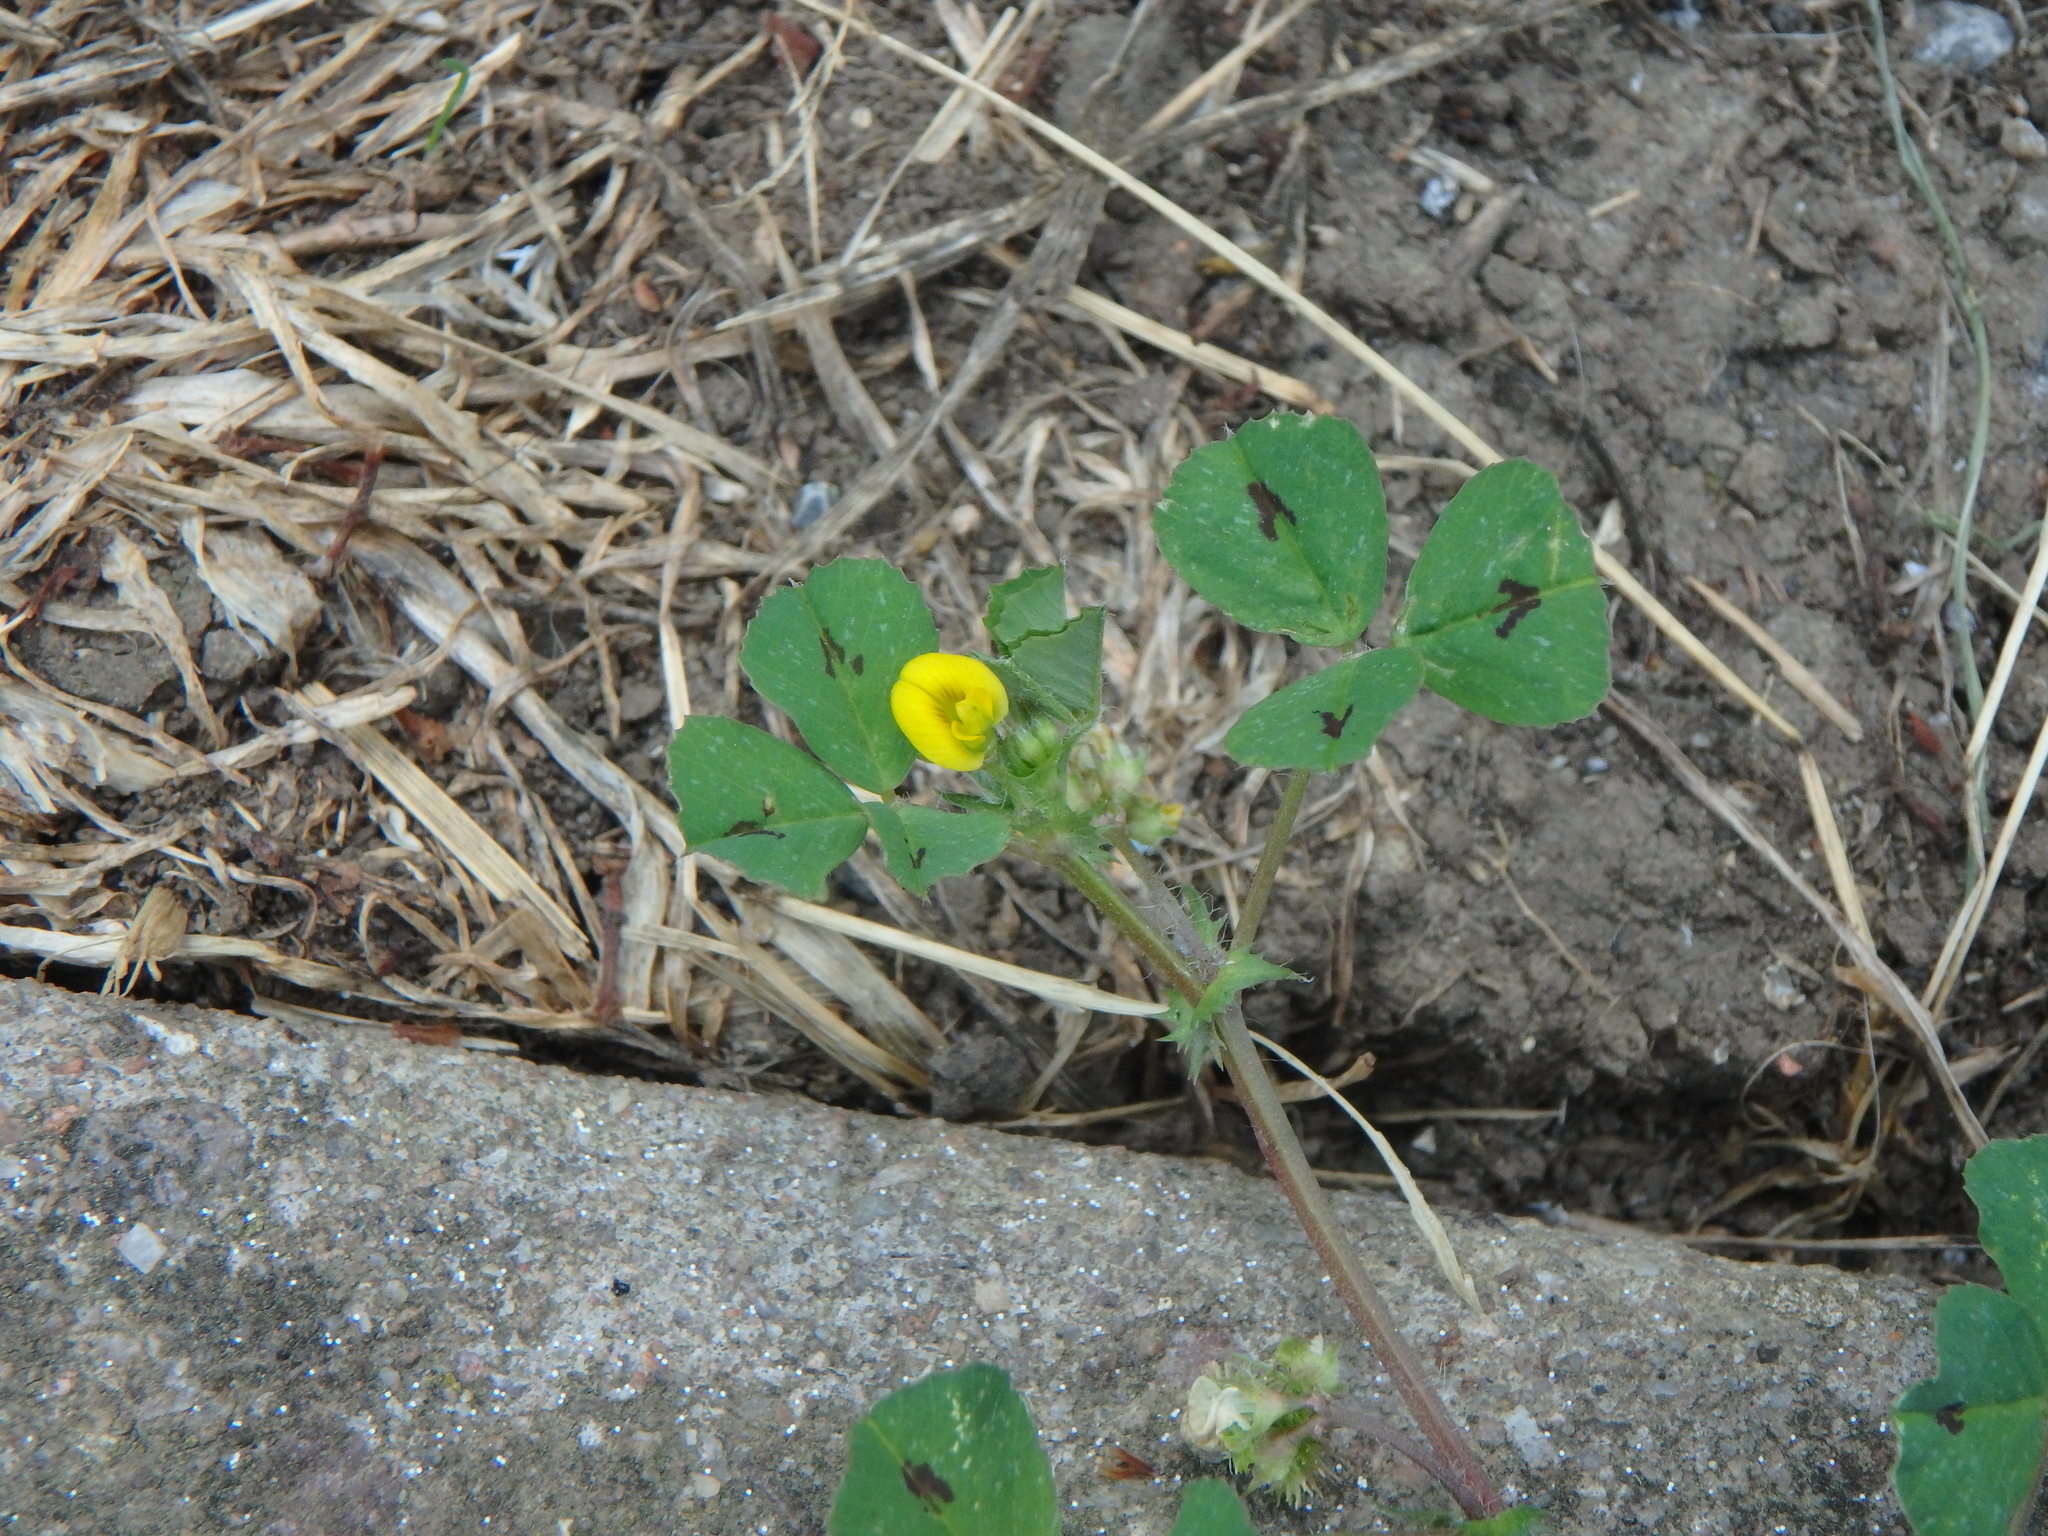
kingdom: Plantae
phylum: Tracheophyta
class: Magnoliopsida
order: Fabales
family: Fabaceae
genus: Medicago
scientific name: Medicago arabica
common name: Spotted medick
